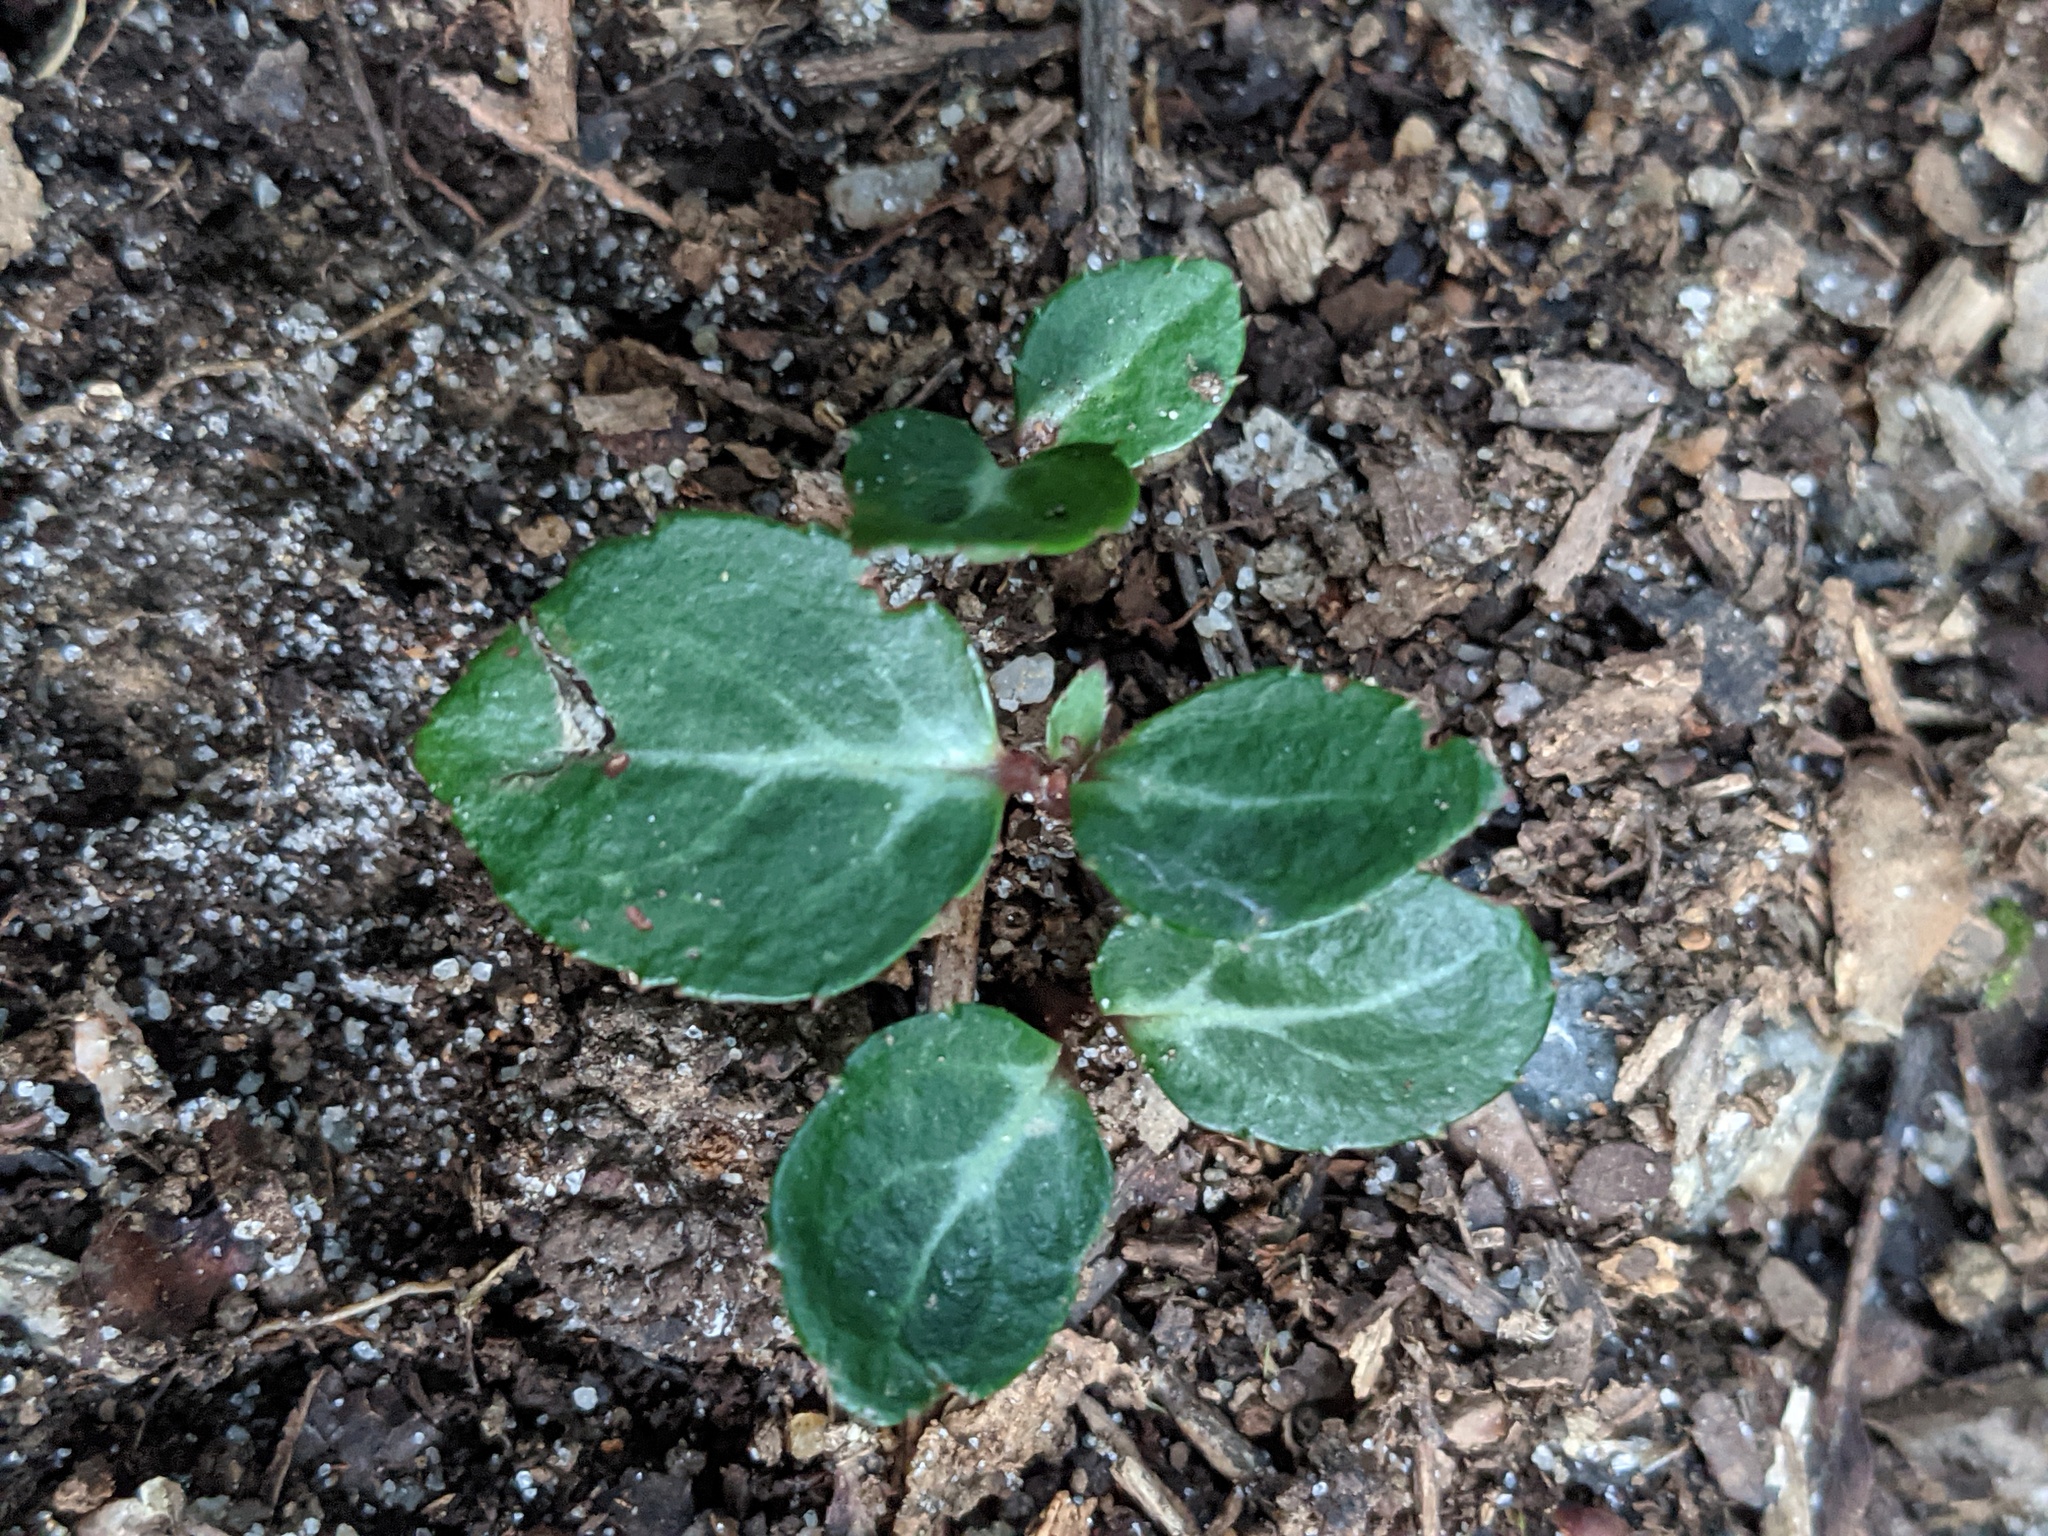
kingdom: Plantae
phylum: Tracheophyta
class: Magnoliopsida
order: Ericales
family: Ericaceae
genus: Chimaphila
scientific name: Chimaphila maculata
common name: Spotted pipsissewa
